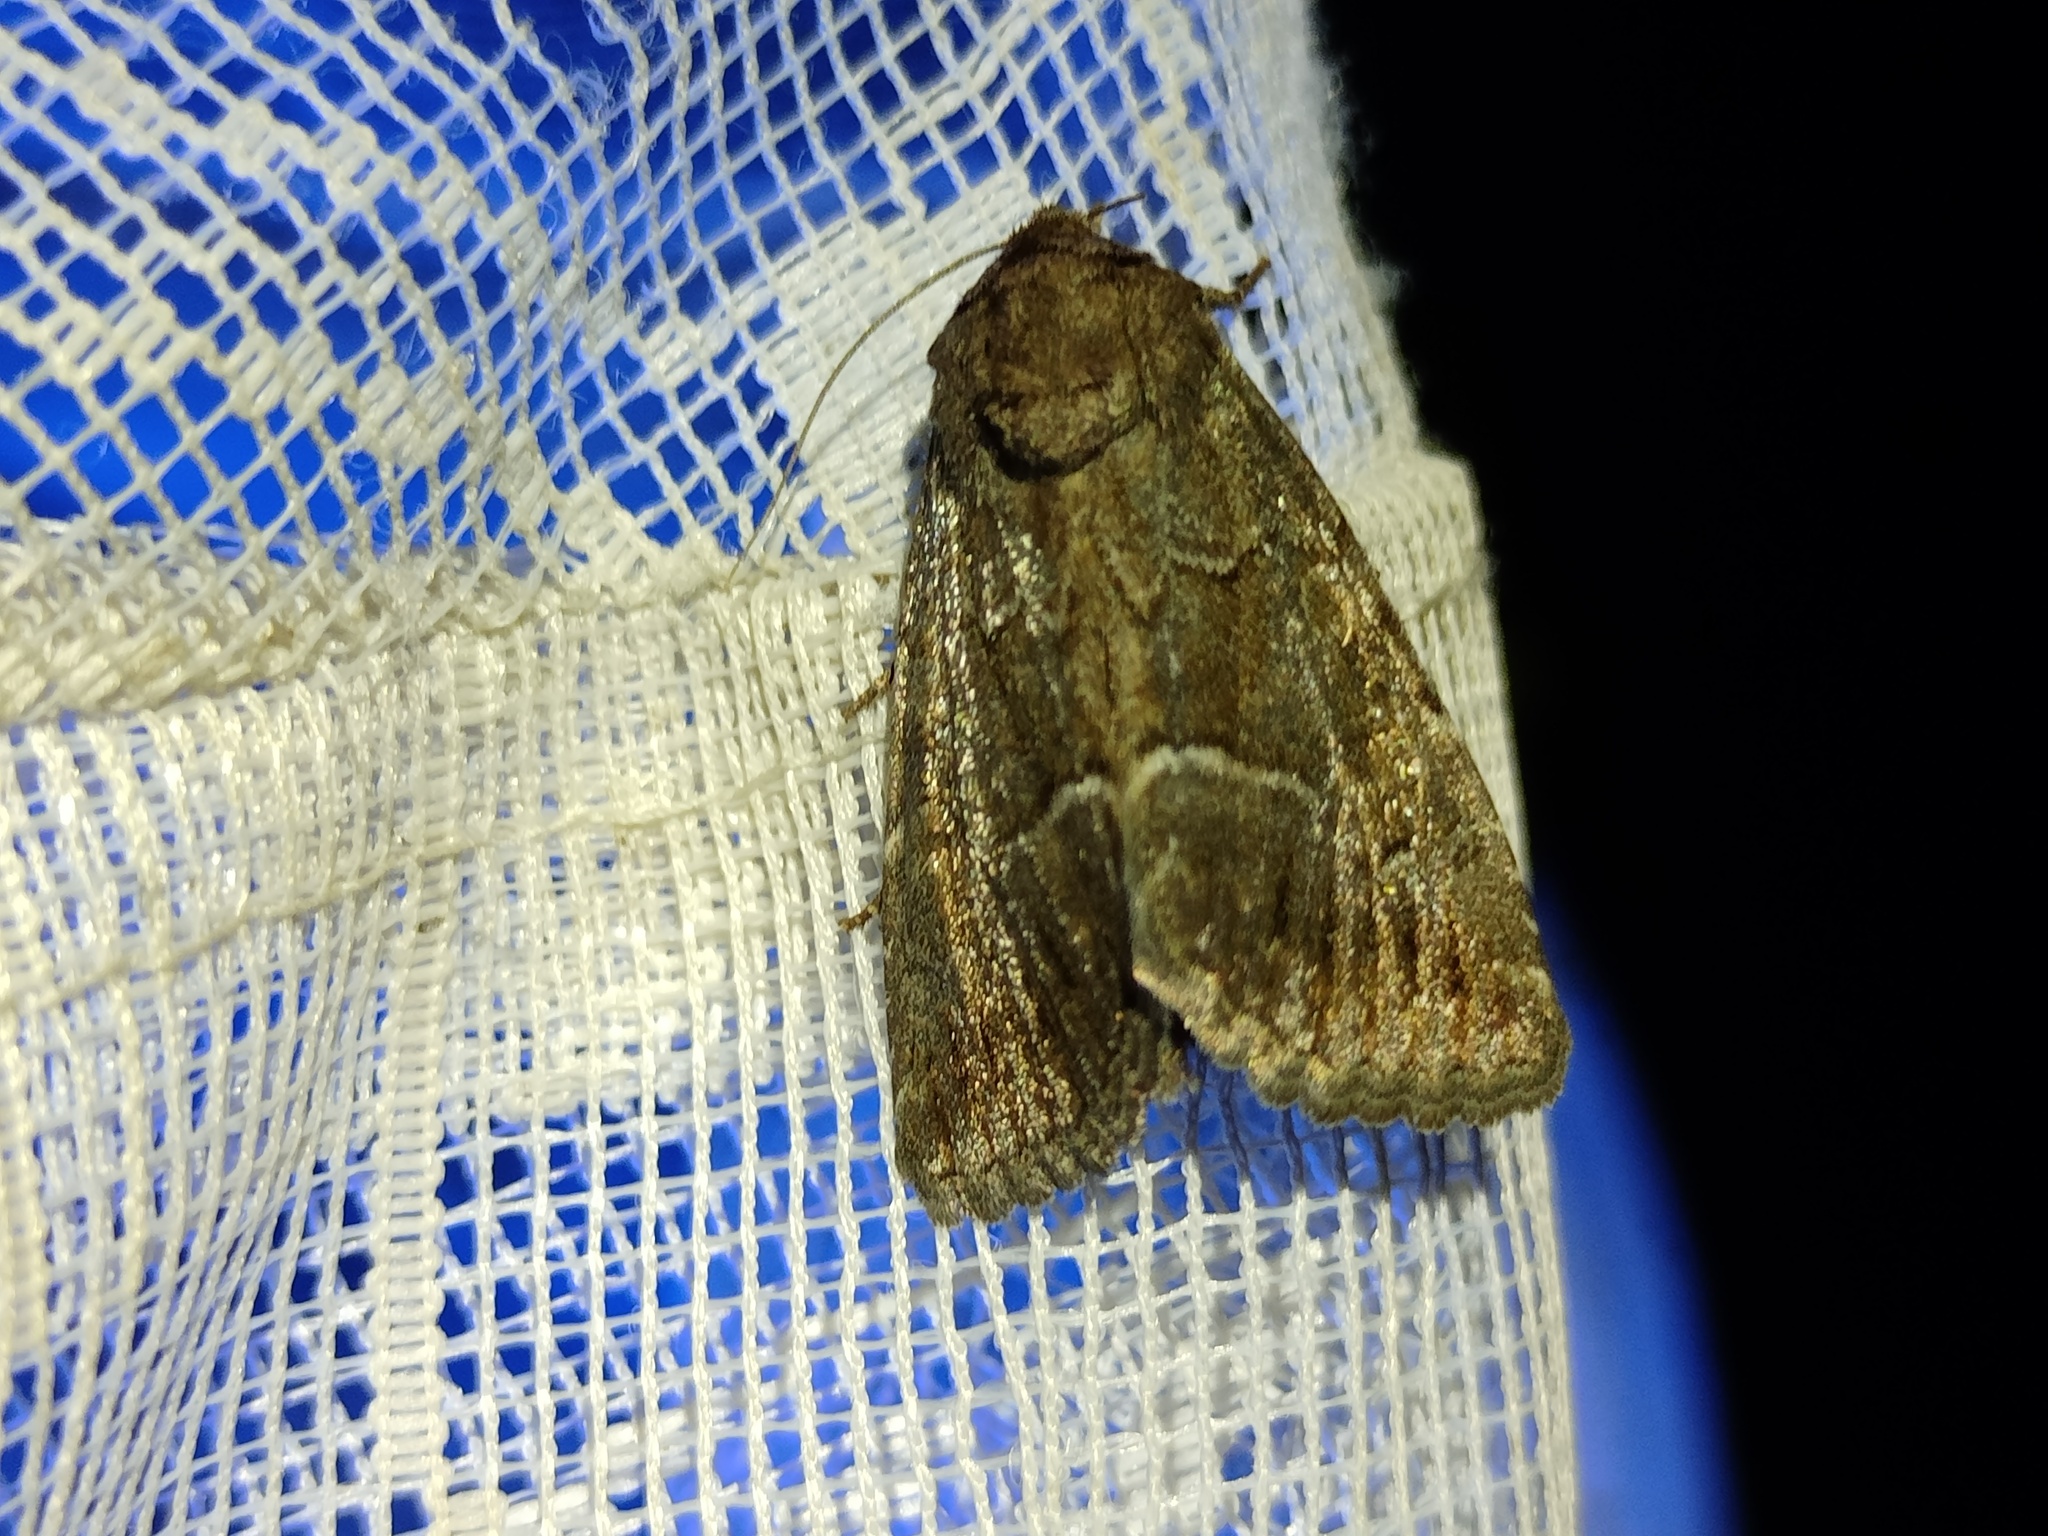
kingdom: Animalia
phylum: Arthropoda
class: Insecta
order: Lepidoptera
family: Noctuidae
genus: Thalpophila
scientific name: Thalpophila matura
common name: Straw underwing
